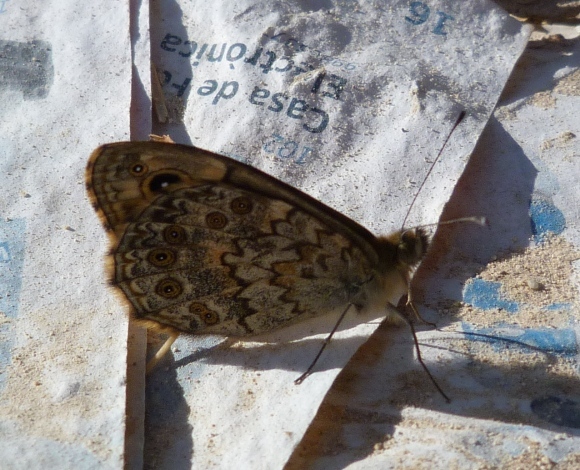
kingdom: Animalia
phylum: Arthropoda
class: Insecta
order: Lepidoptera
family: Nymphalidae
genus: Pararge
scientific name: Pararge Lasiommata megera
